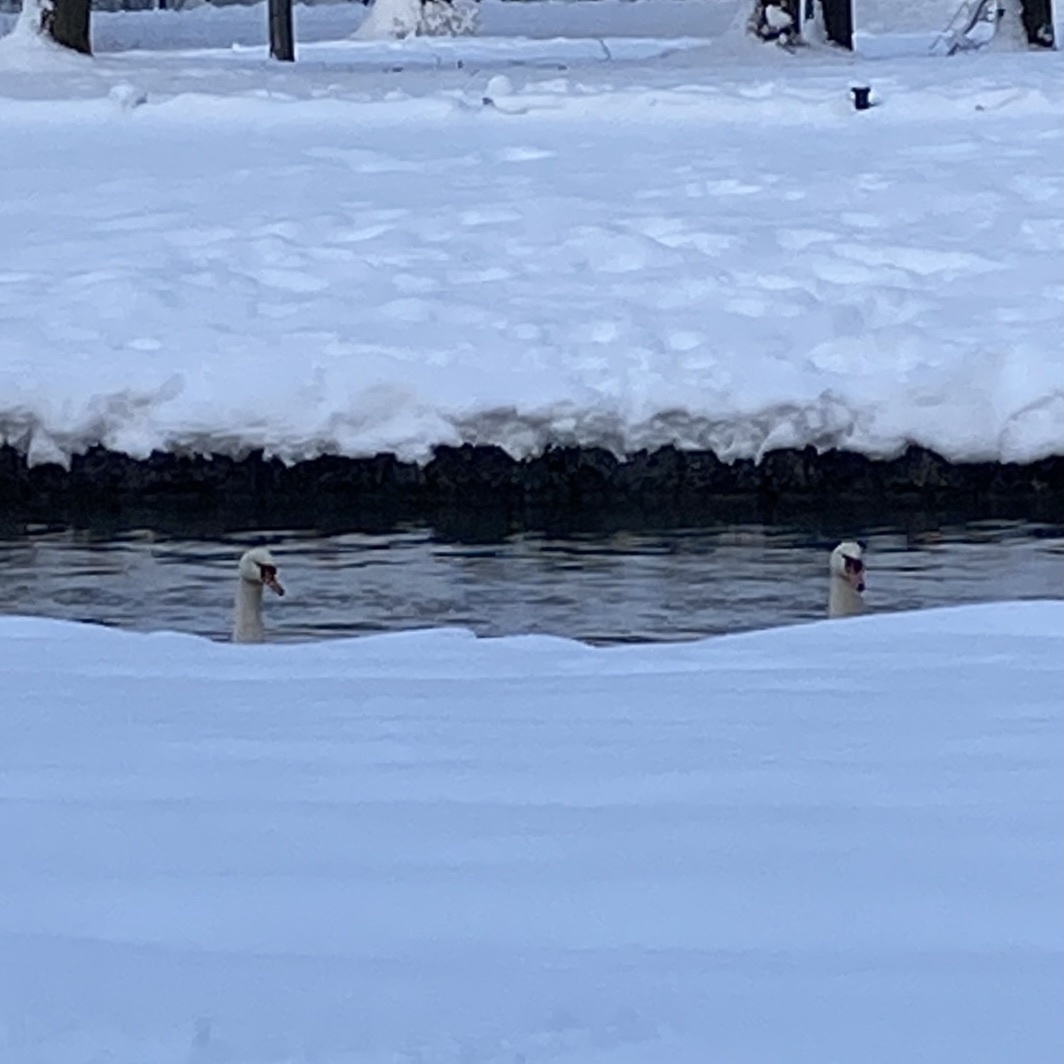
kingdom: Animalia
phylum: Chordata
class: Aves
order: Anseriformes
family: Anatidae
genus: Cygnus
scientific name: Cygnus olor
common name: Mute swan
